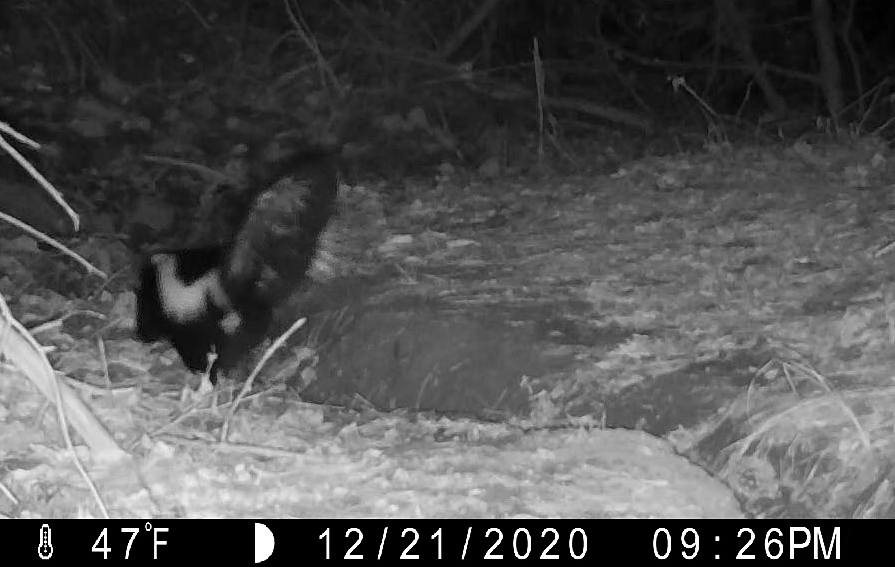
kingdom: Animalia
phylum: Chordata
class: Mammalia
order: Carnivora
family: Mephitidae
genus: Mephitis
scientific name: Mephitis mephitis
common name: Striped skunk
